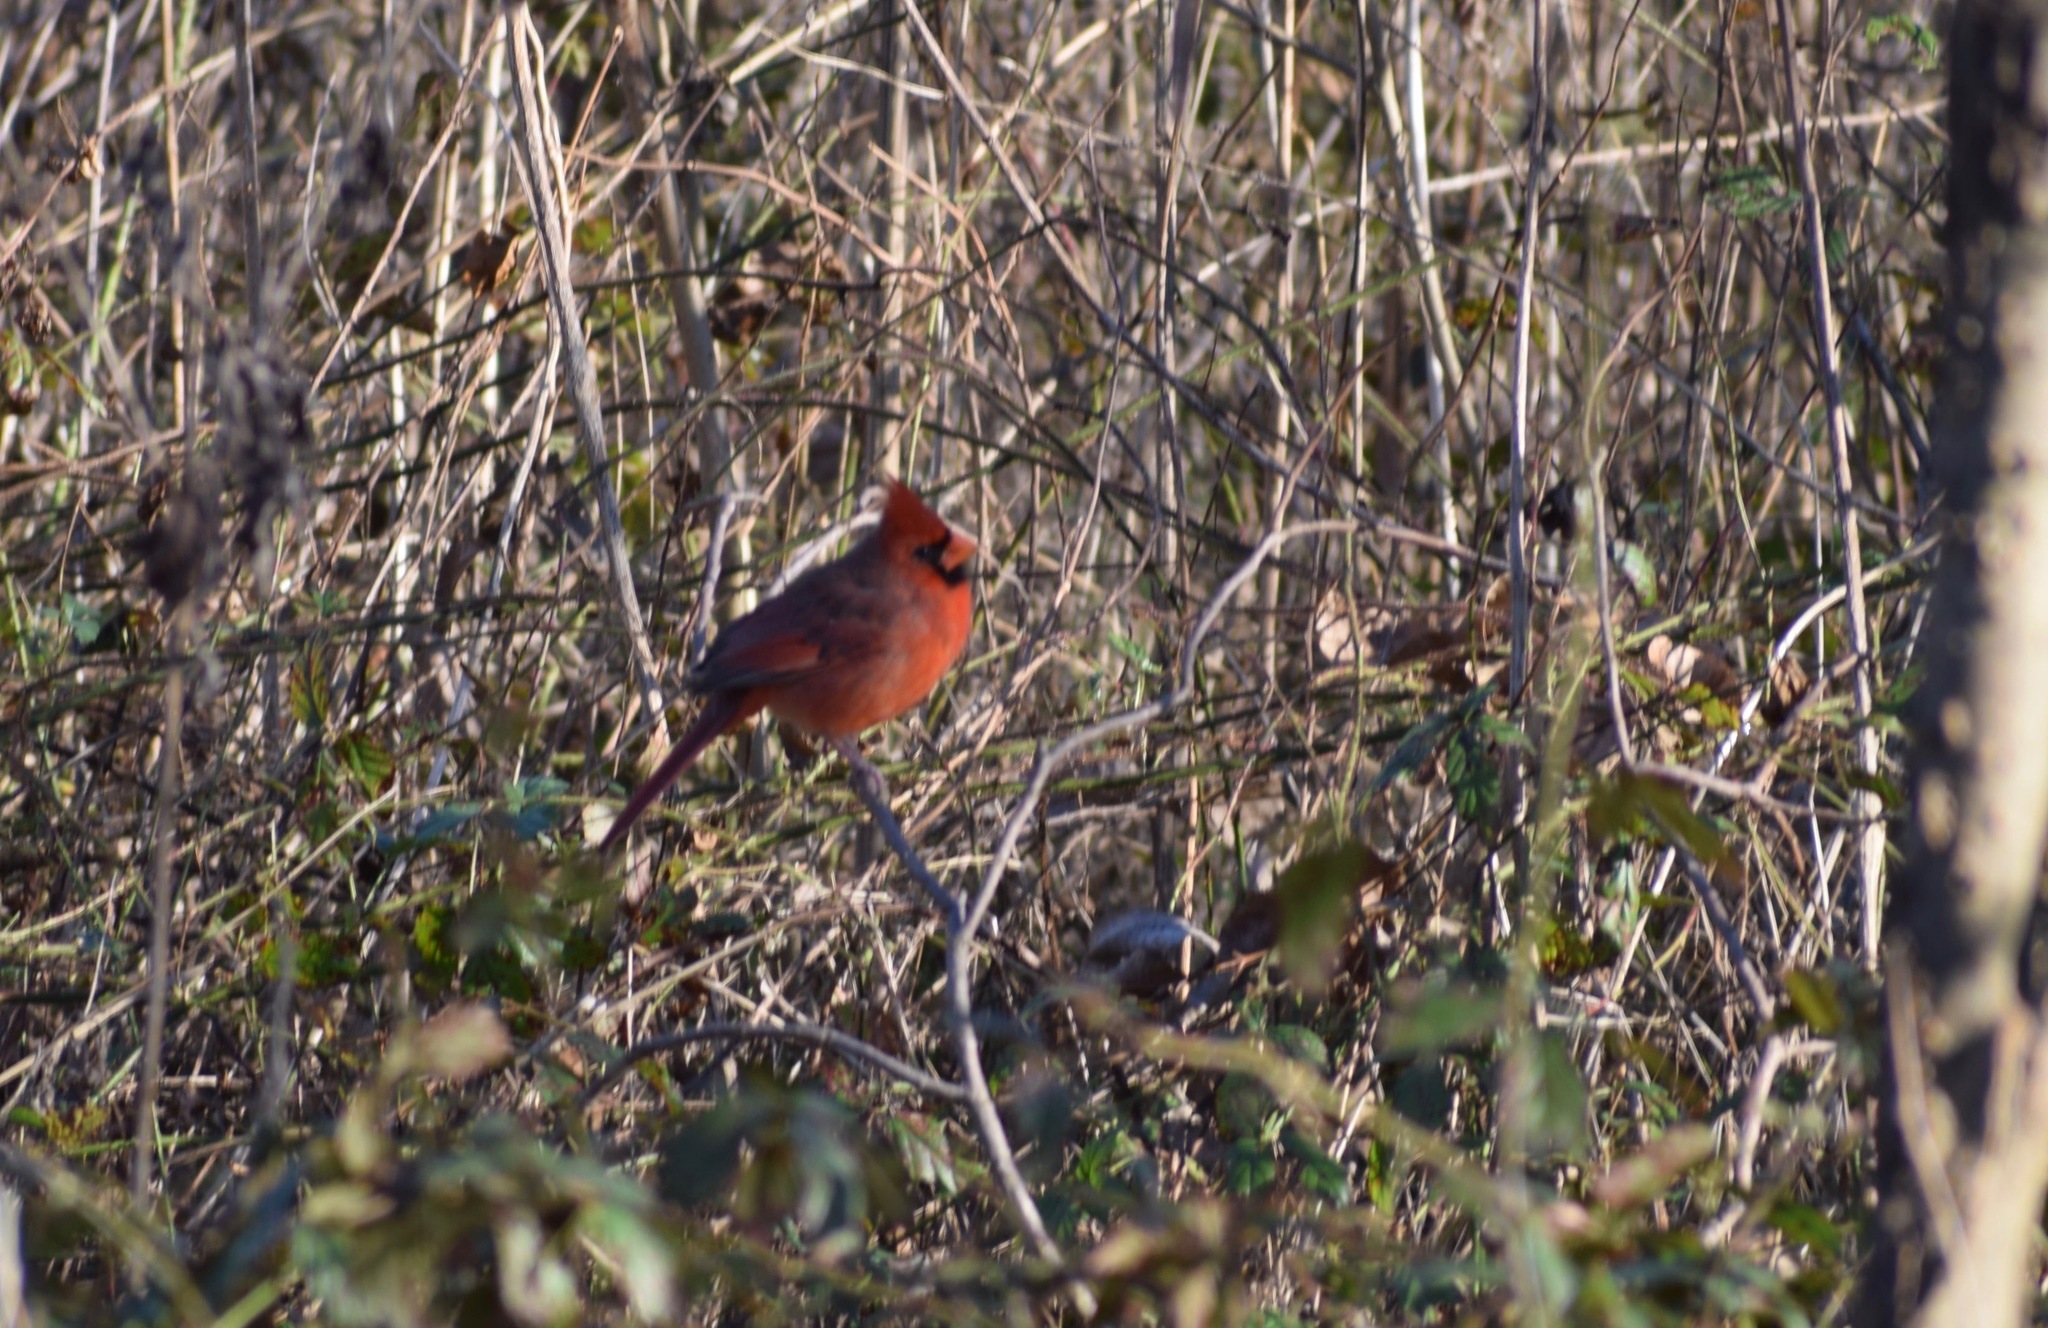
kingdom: Animalia
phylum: Chordata
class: Aves
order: Passeriformes
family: Cardinalidae
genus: Cardinalis
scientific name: Cardinalis cardinalis
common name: Northern cardinal
